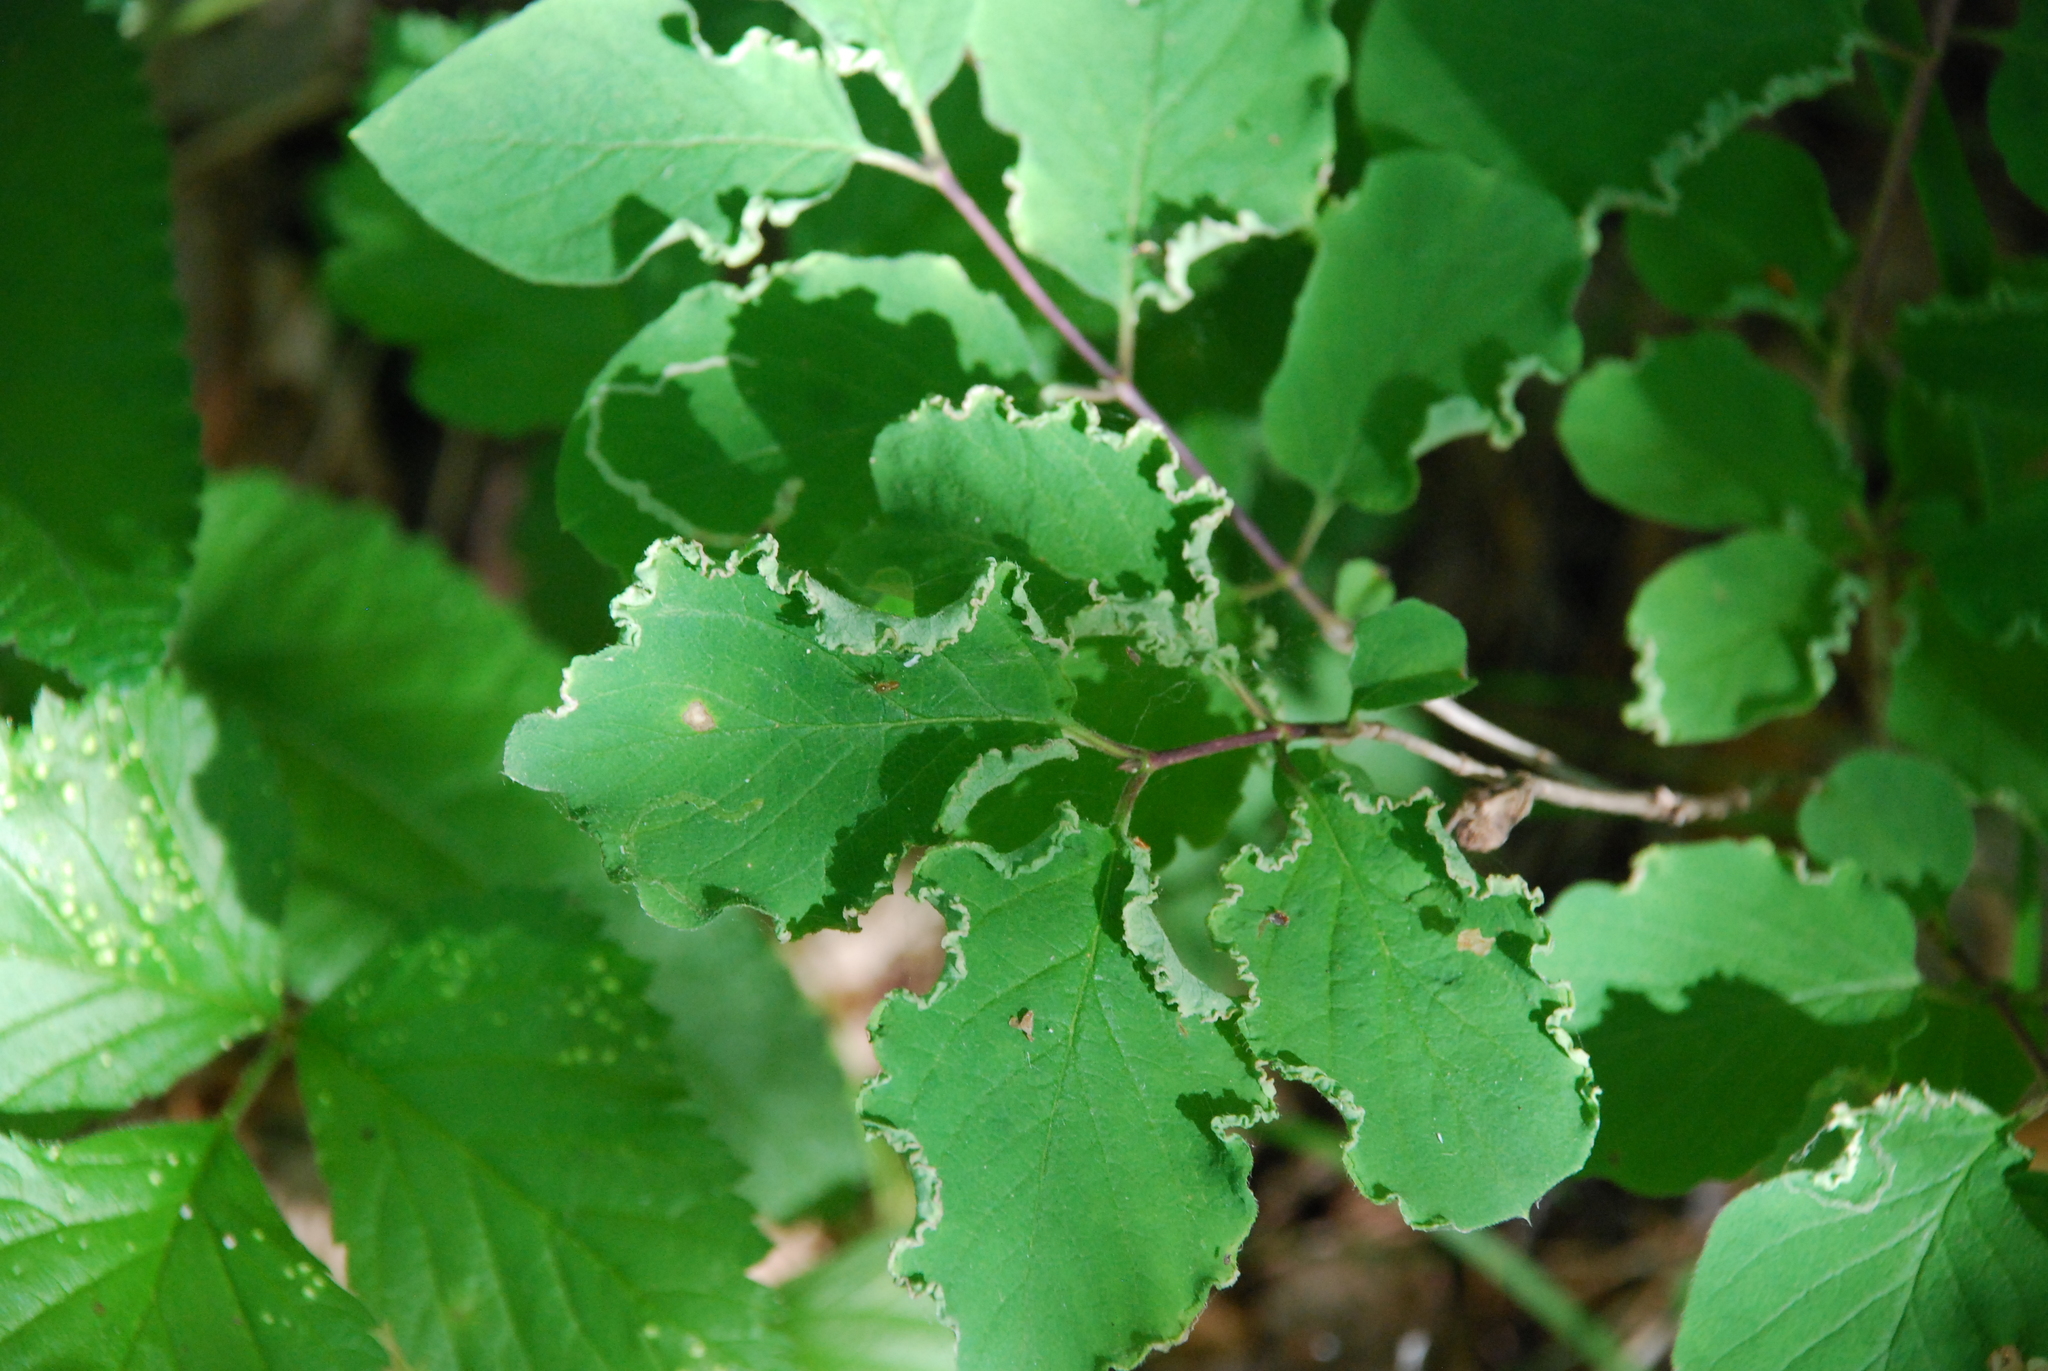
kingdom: Plantae
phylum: Tracheophyta
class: Magnoliopsida
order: Dipsacales
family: Caprifoliaceae
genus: Lonicera
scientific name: Lonicera xylosteum
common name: Fly honeysuckle
